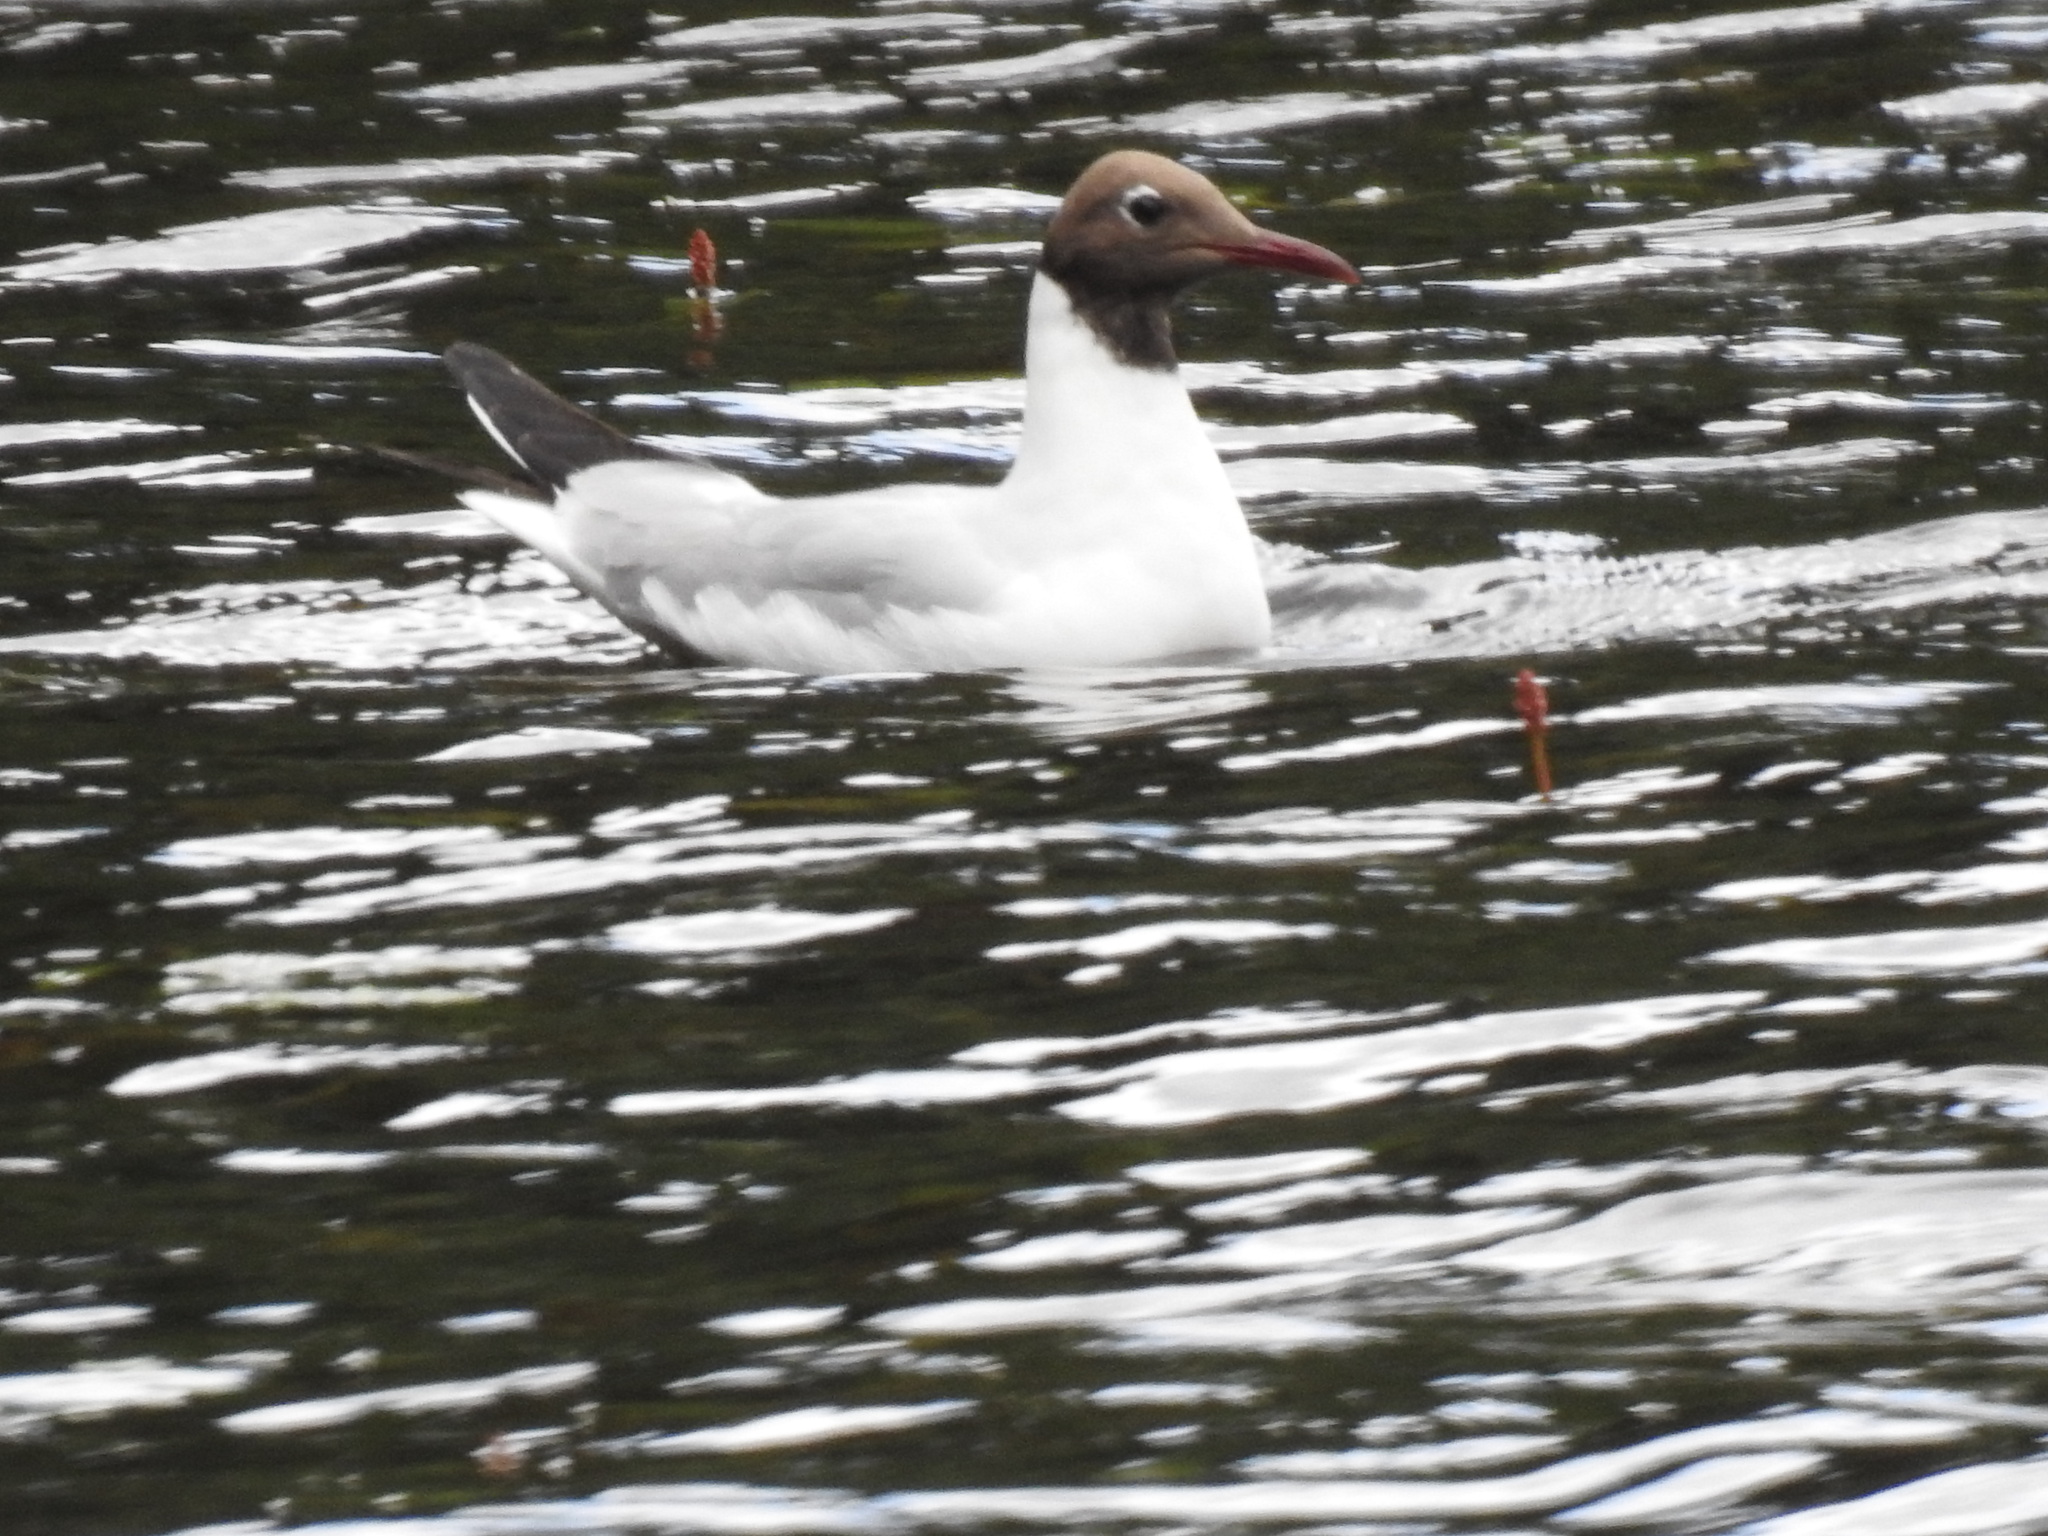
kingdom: Animalia
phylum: Chordata
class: Aves
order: Charadriiformes
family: Laridae
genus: Chroicocephalus
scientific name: Chroicocephalus ridibundus
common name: Black-headed gull
